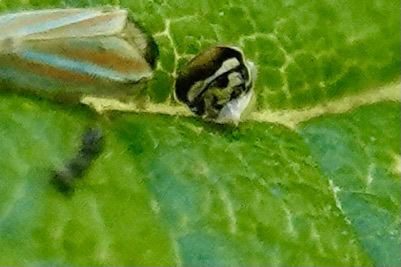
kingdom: Animalia
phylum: Arthropoda
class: Insecta
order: Hemiptera
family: Cicadellidae
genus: Graphocephala
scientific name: Graphocephala versuta
